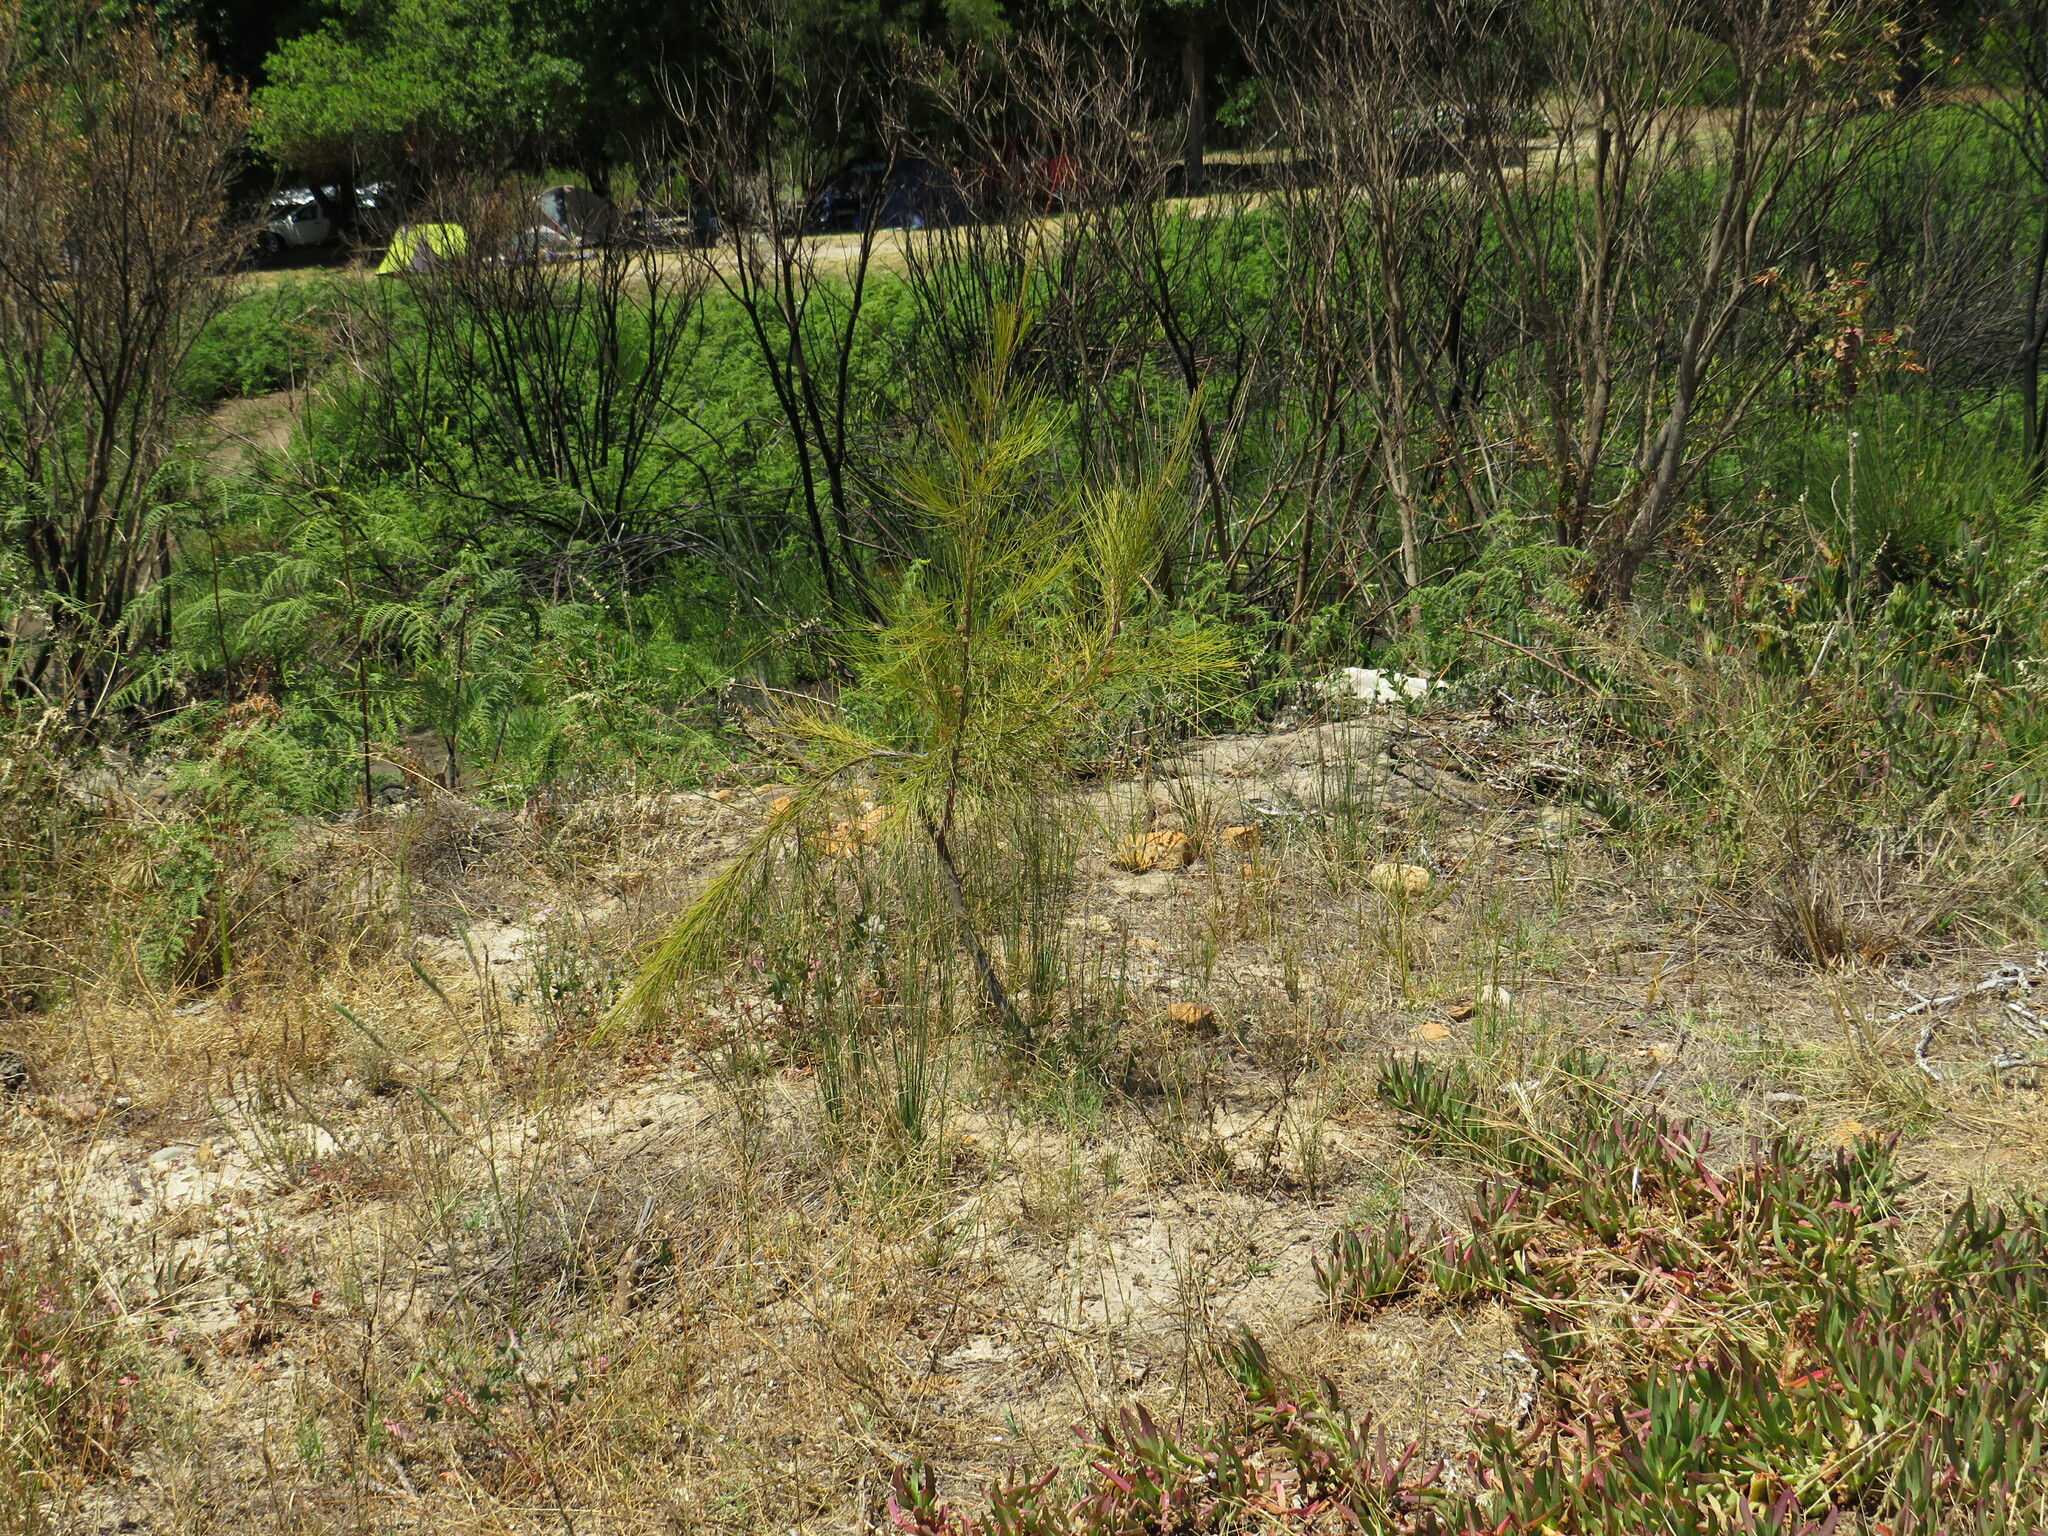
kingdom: Plantae
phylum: Tracheophyta
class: Magnoliopsida
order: Fagales
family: Casuarinaceae
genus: Casuarina
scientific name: Casuarina cunninghamiana
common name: River sheoak
